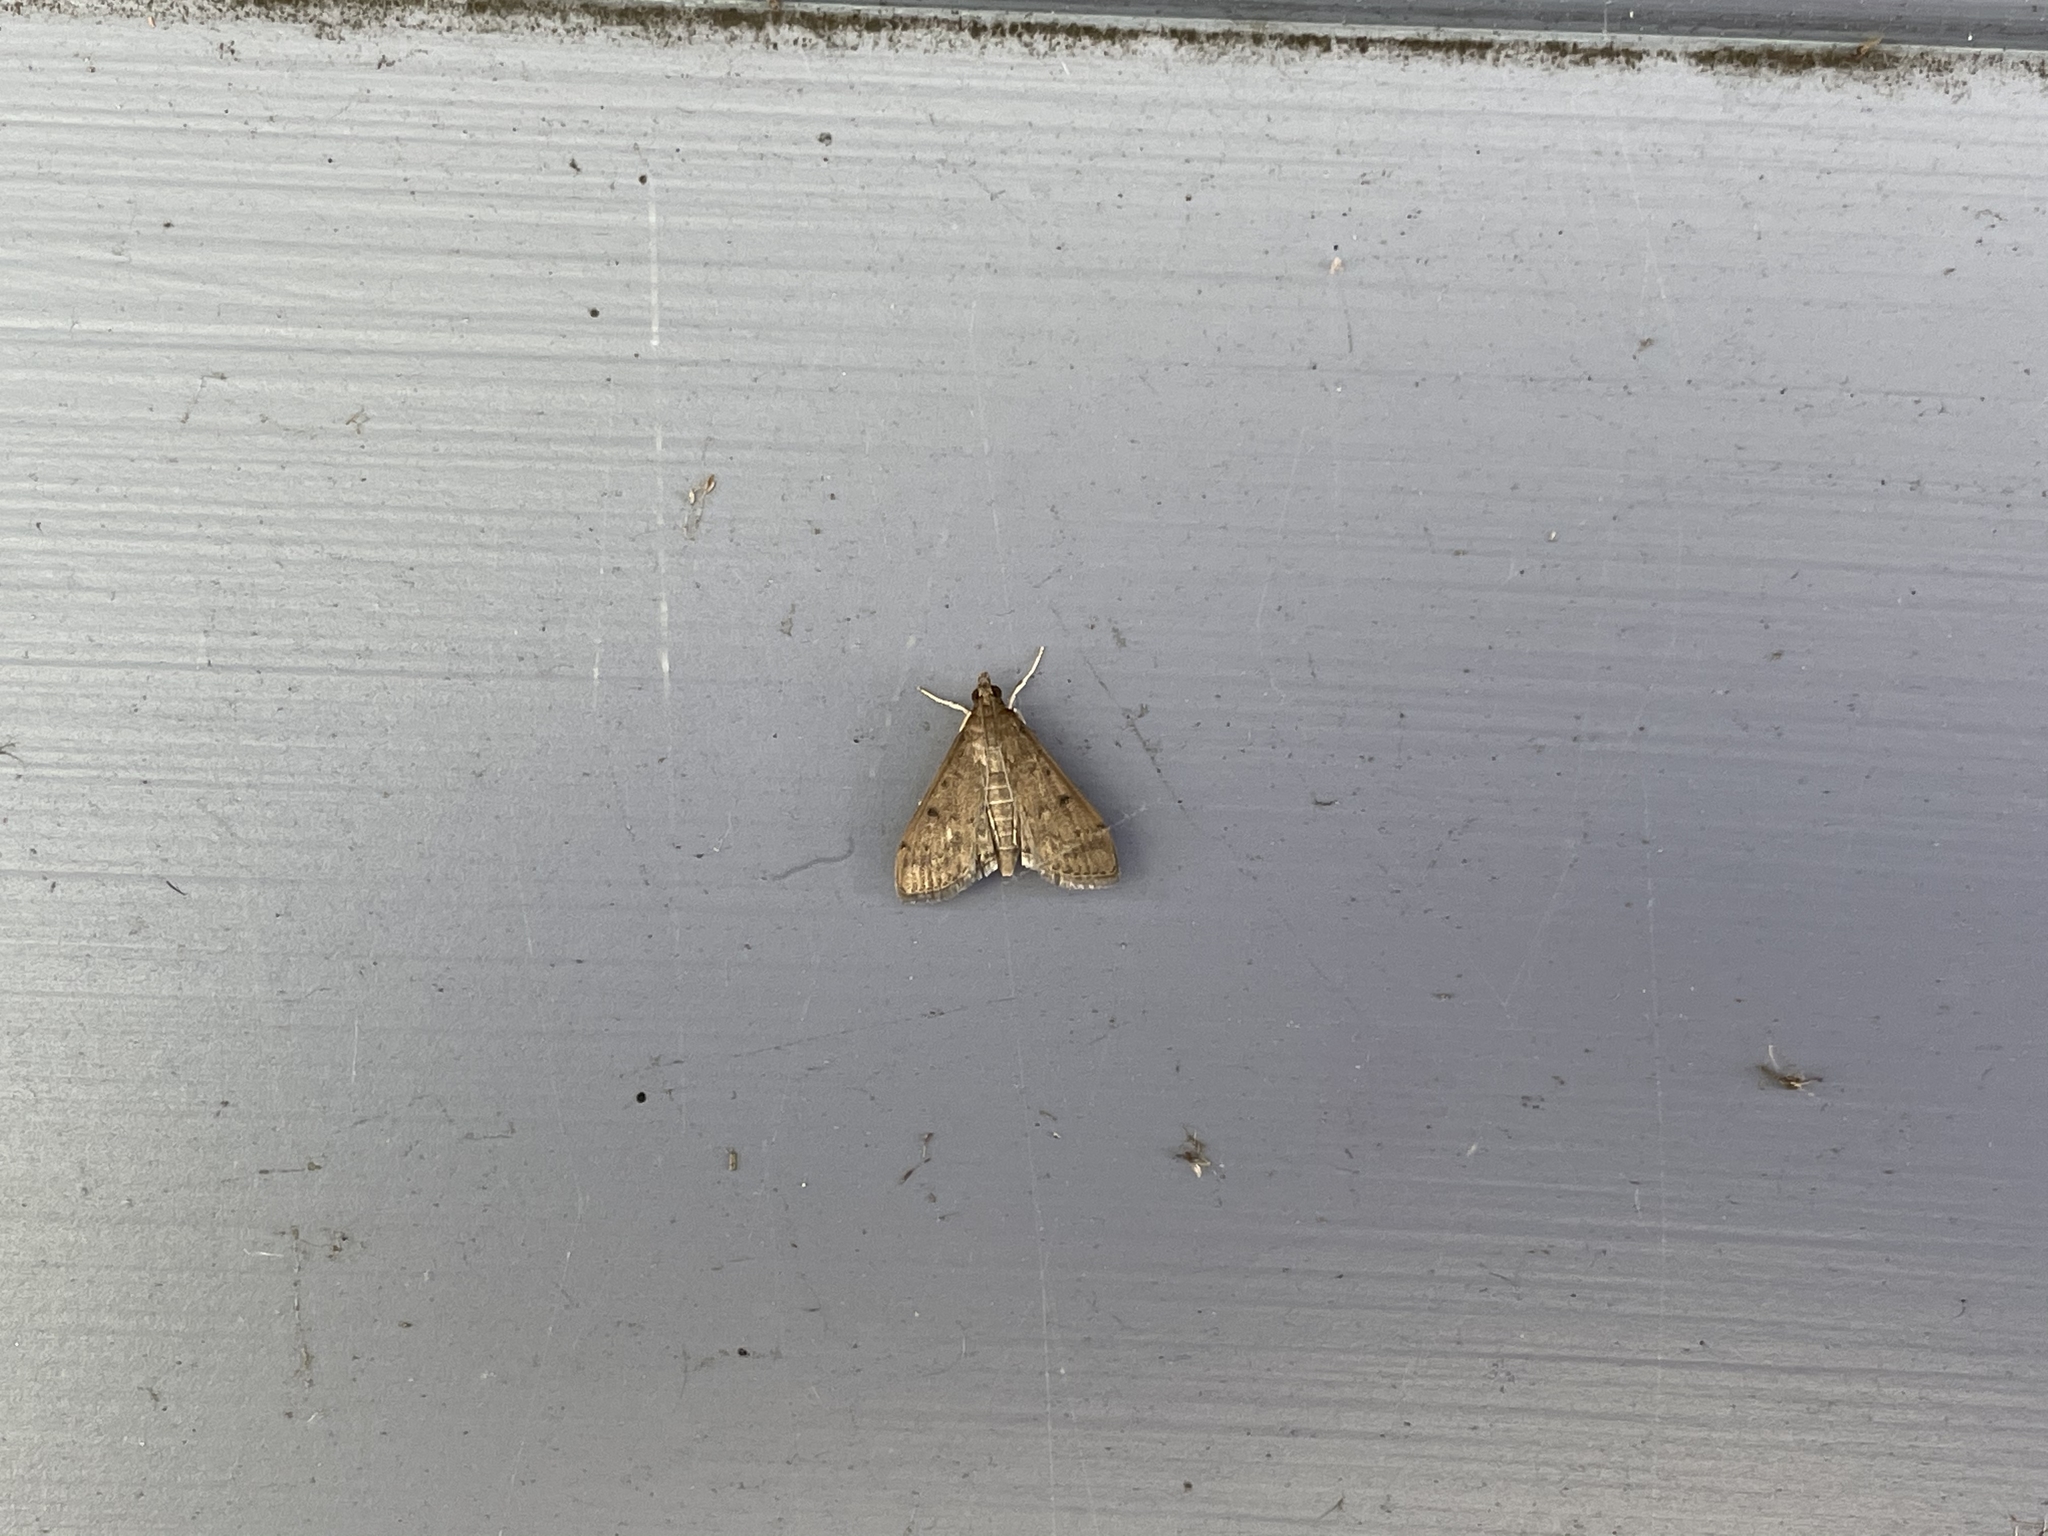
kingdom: Animalia
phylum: Arthropoda
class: Insecta
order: Lepidoptera
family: Crambidae
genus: Herpetogramma
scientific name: Herpetogramma phaeopteralis
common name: Dusky herpetogramma moth
